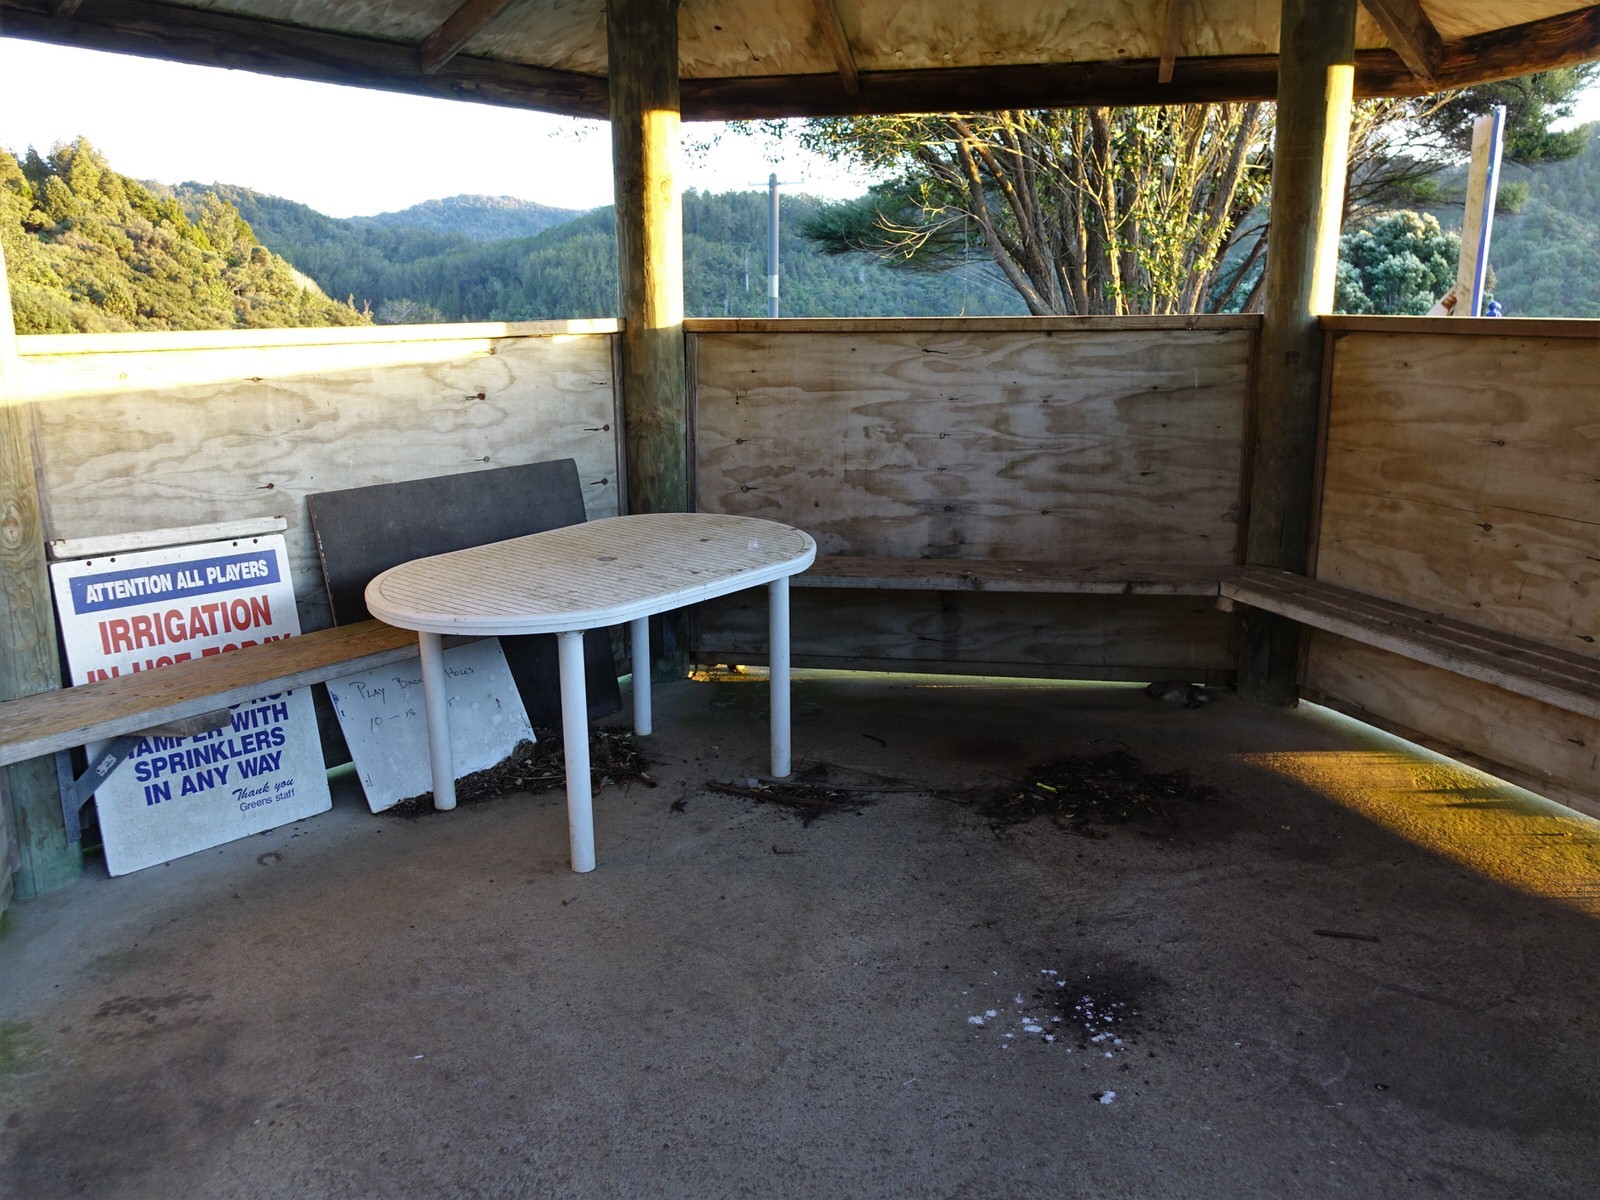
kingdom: Animalia
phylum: Chordata
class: Mammalia
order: Lagomorpha
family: Leporidae
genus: Oryctolagus
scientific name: Oryctolagus cuniculus
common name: European rabbit
